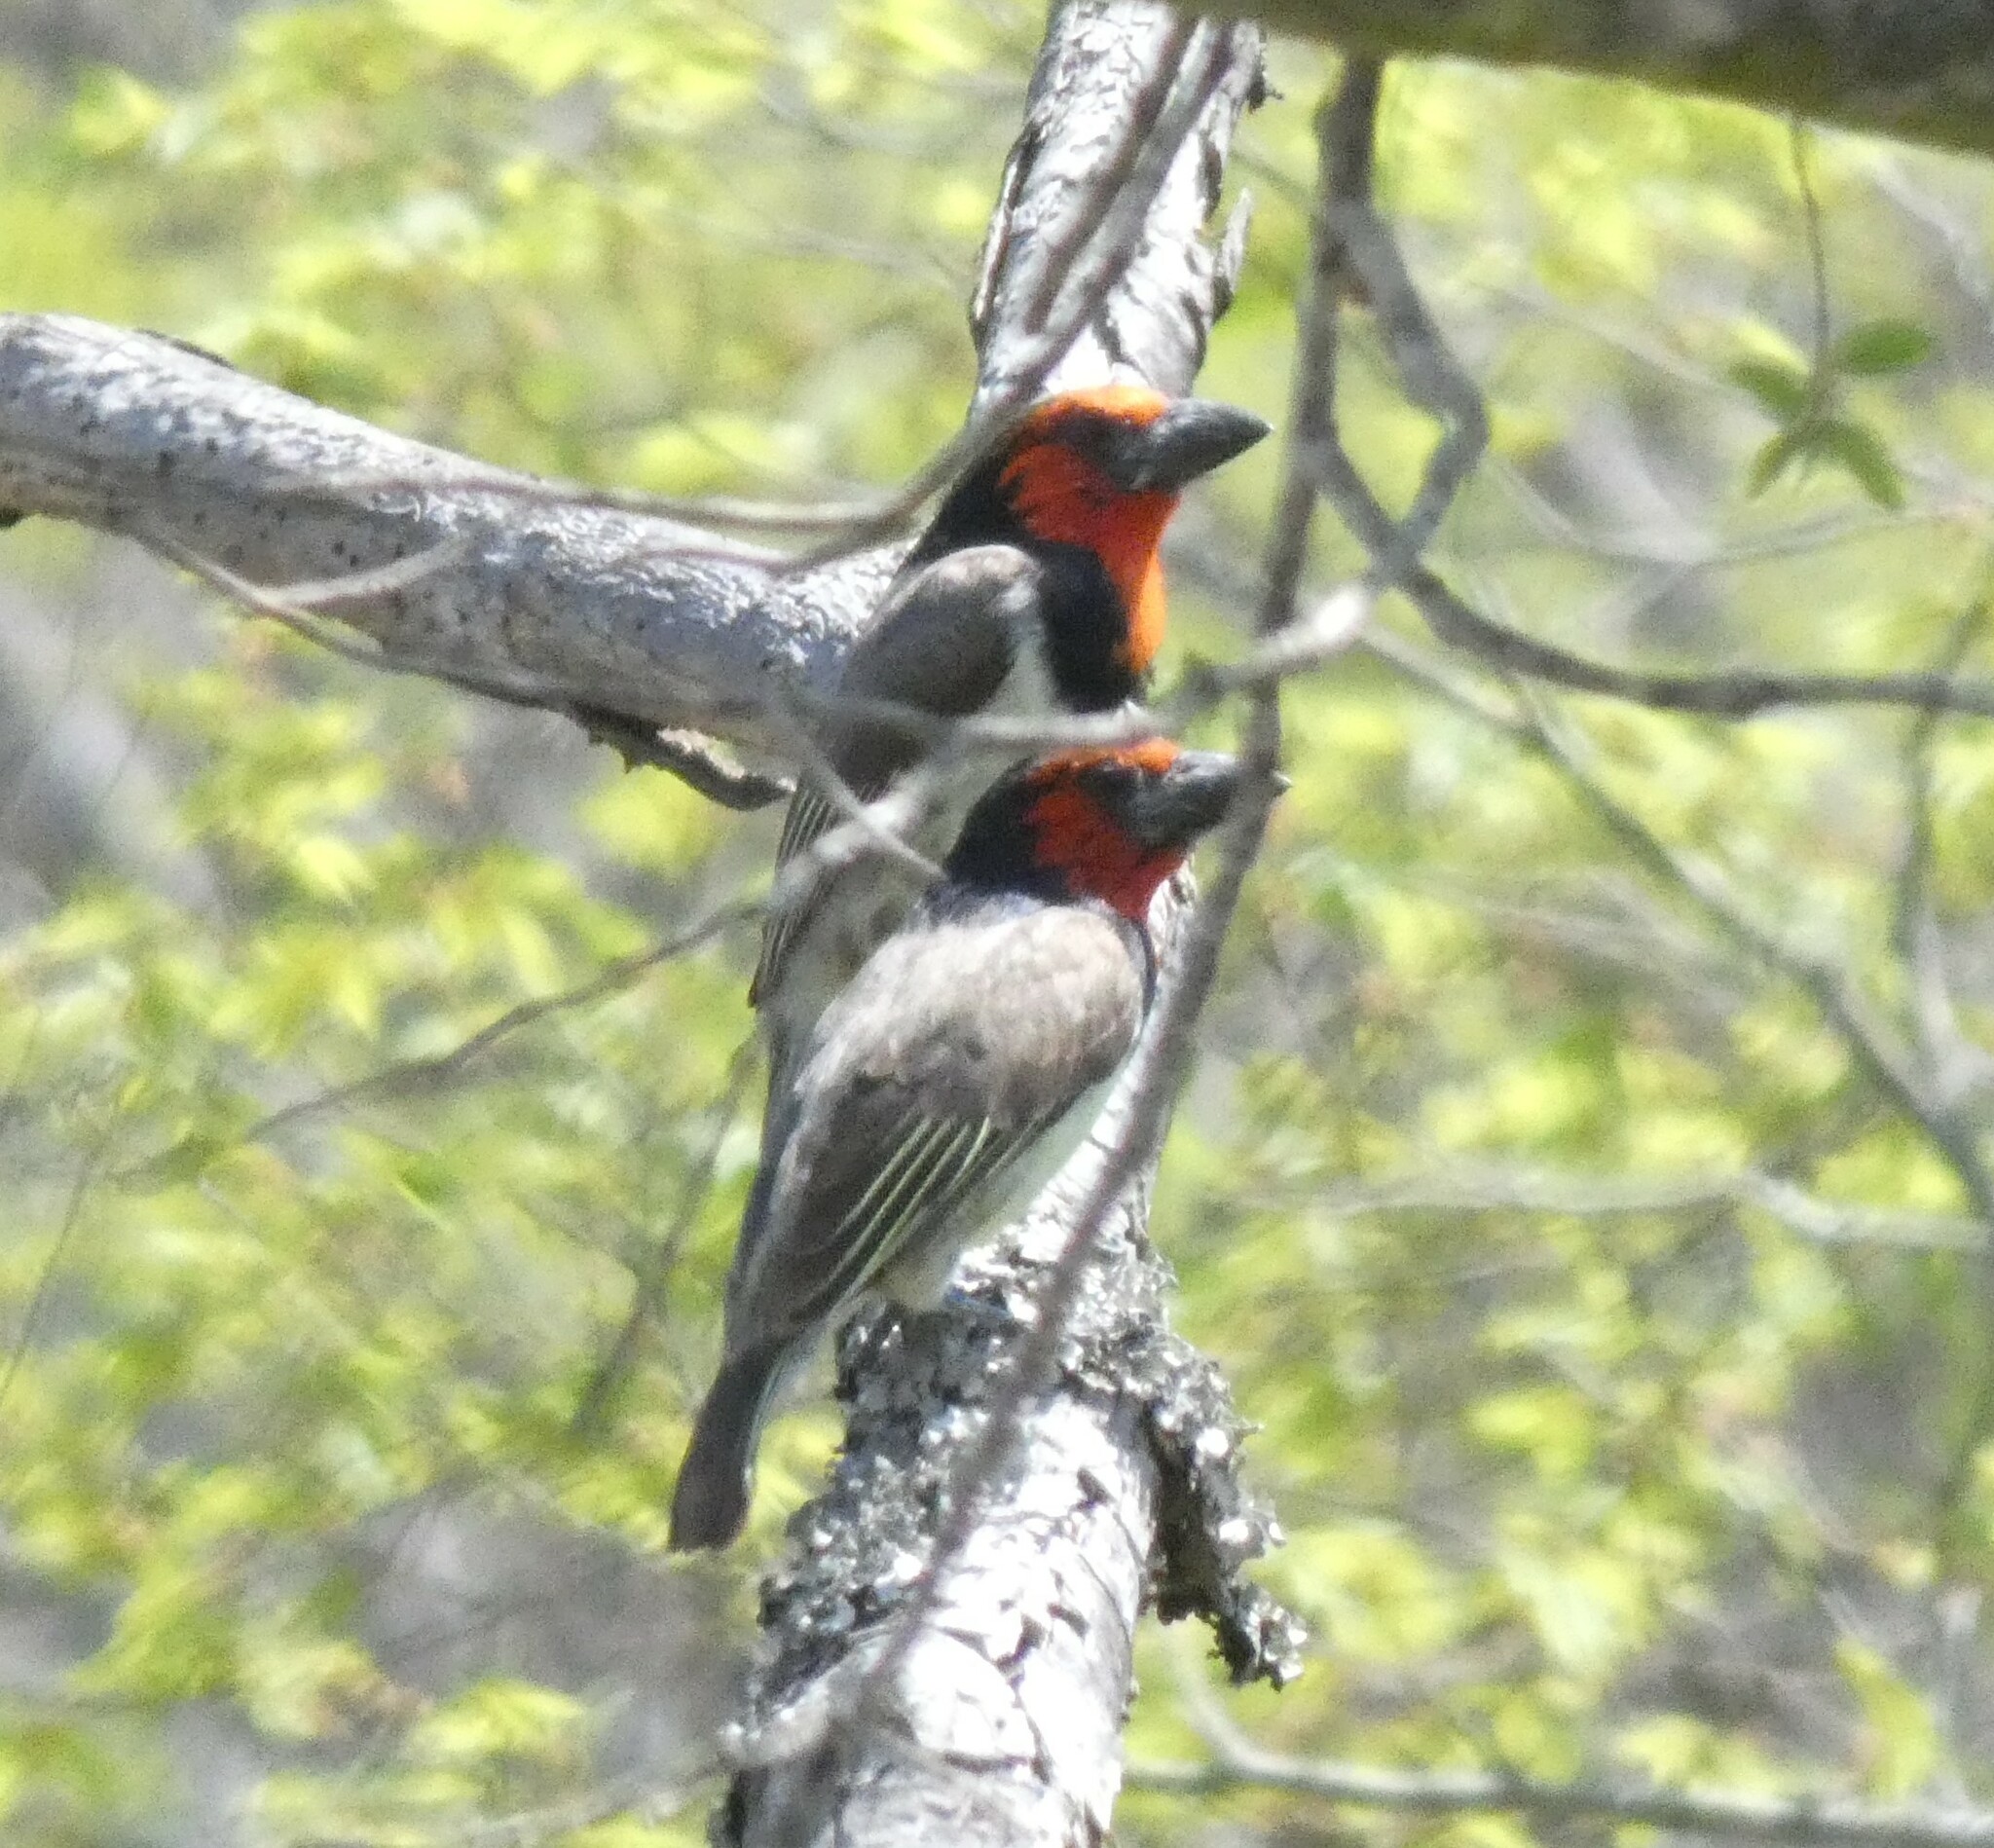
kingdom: Animalia
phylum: Chordata
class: Aves
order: Piciformes
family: Lybiidae
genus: Lybius
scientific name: Lybius torquatus
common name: Black-collared barbet
